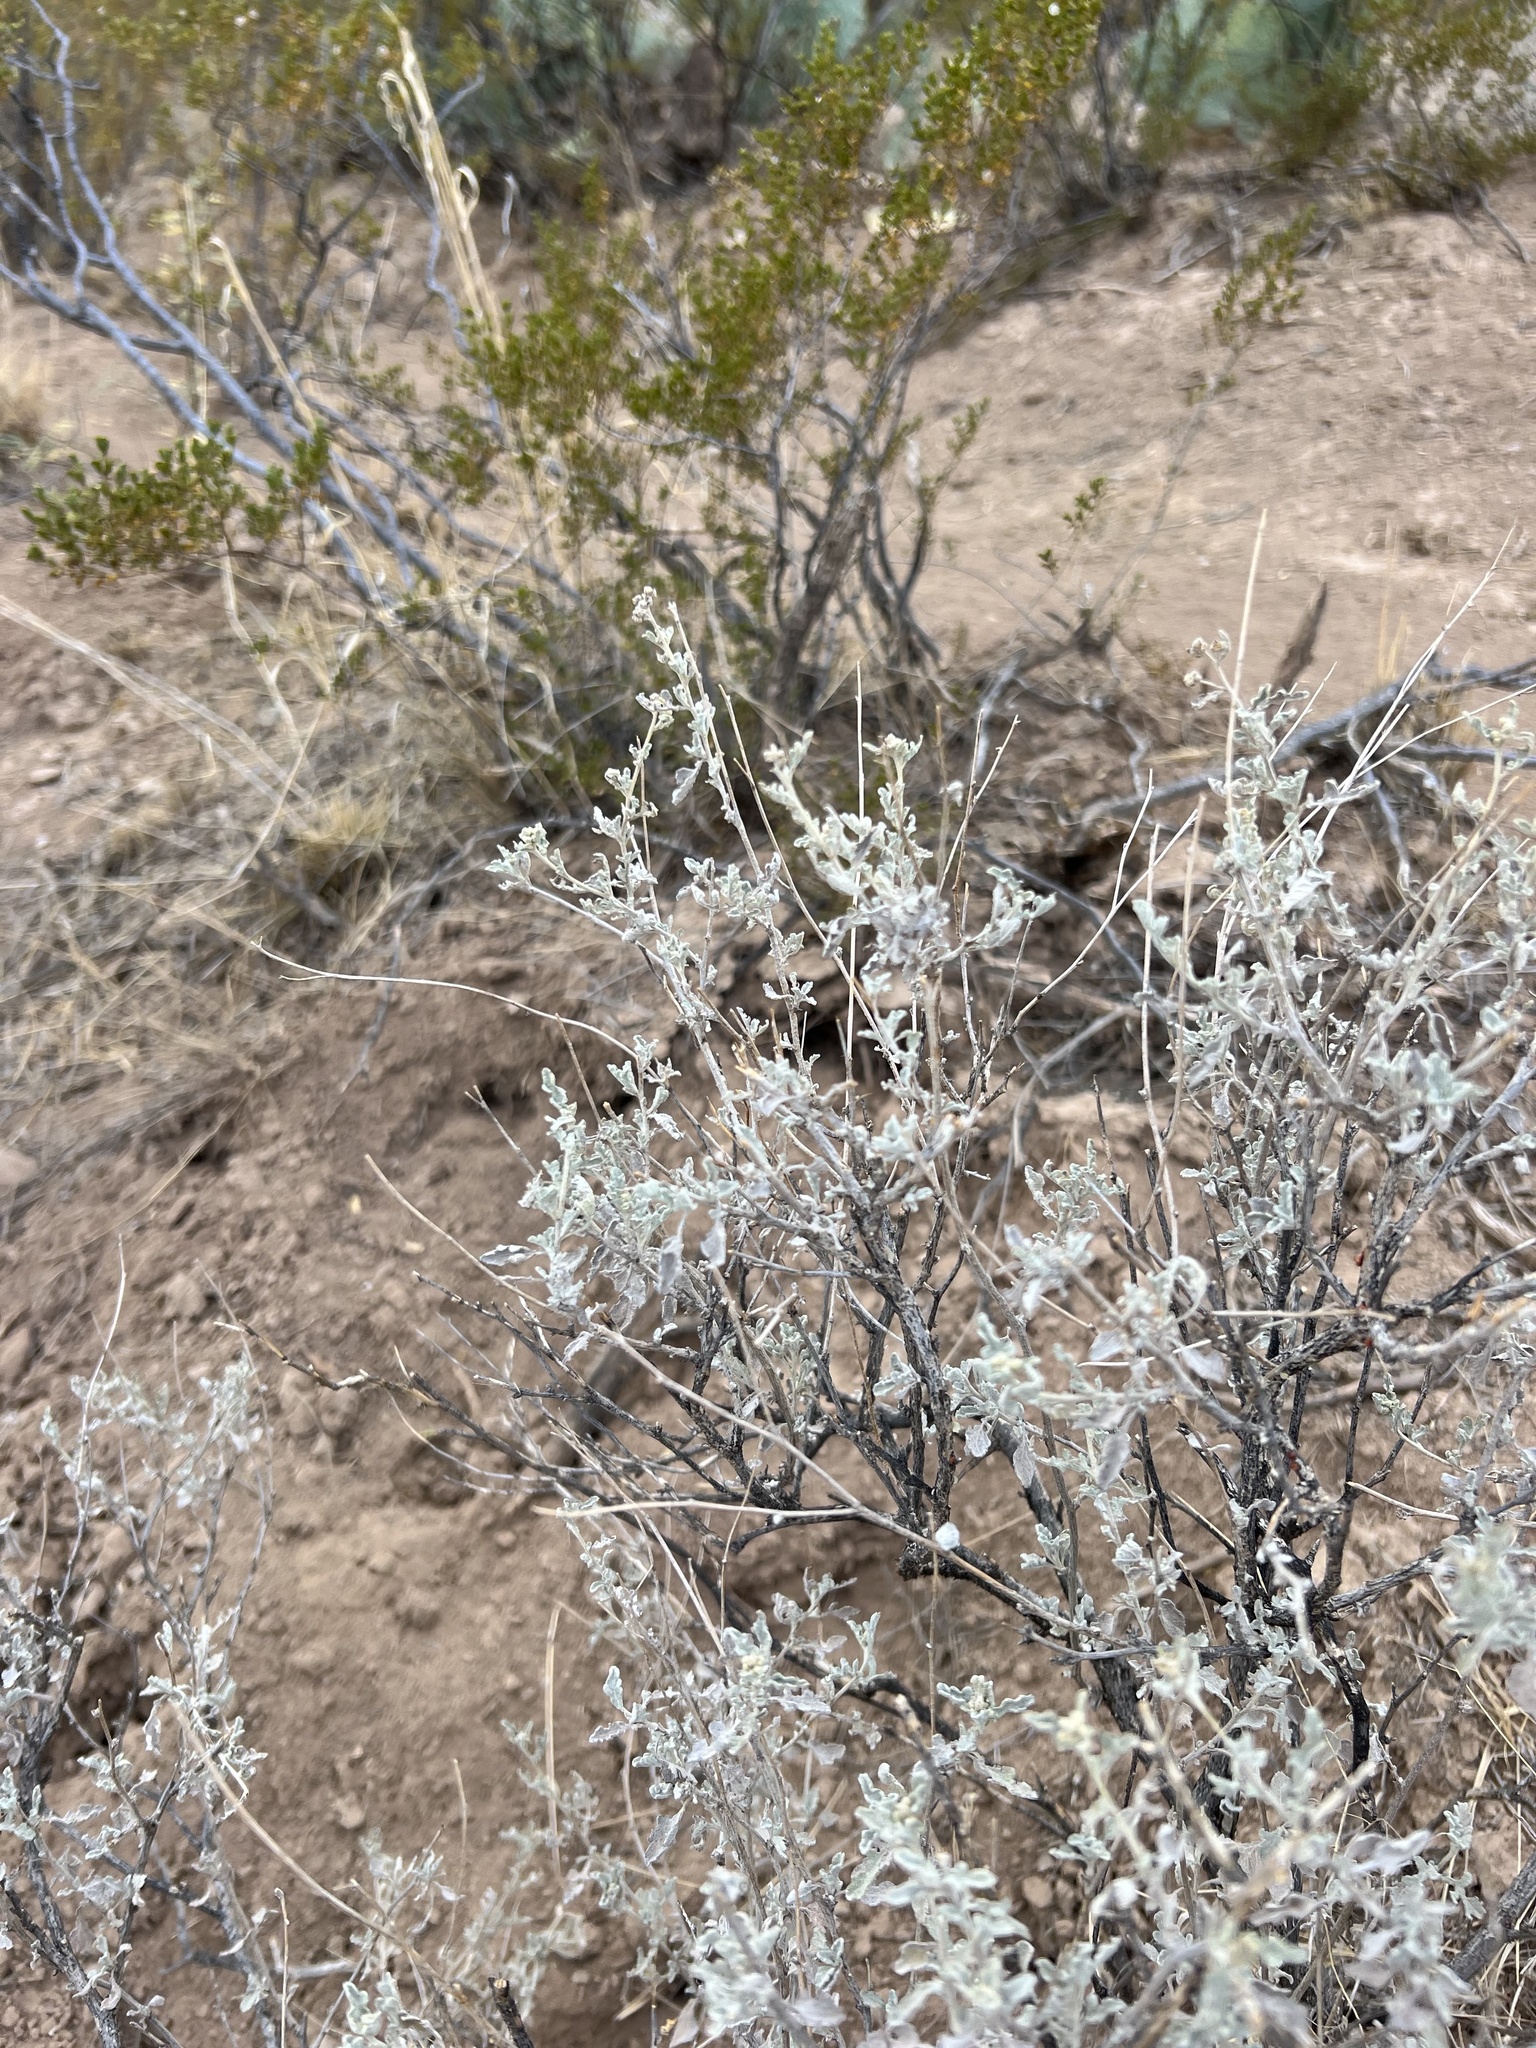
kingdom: Plantae
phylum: Tracheophyta
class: Magnoliopsida
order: Asterales
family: Asteraceae
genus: Parthenium
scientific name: Parthenium incanum
